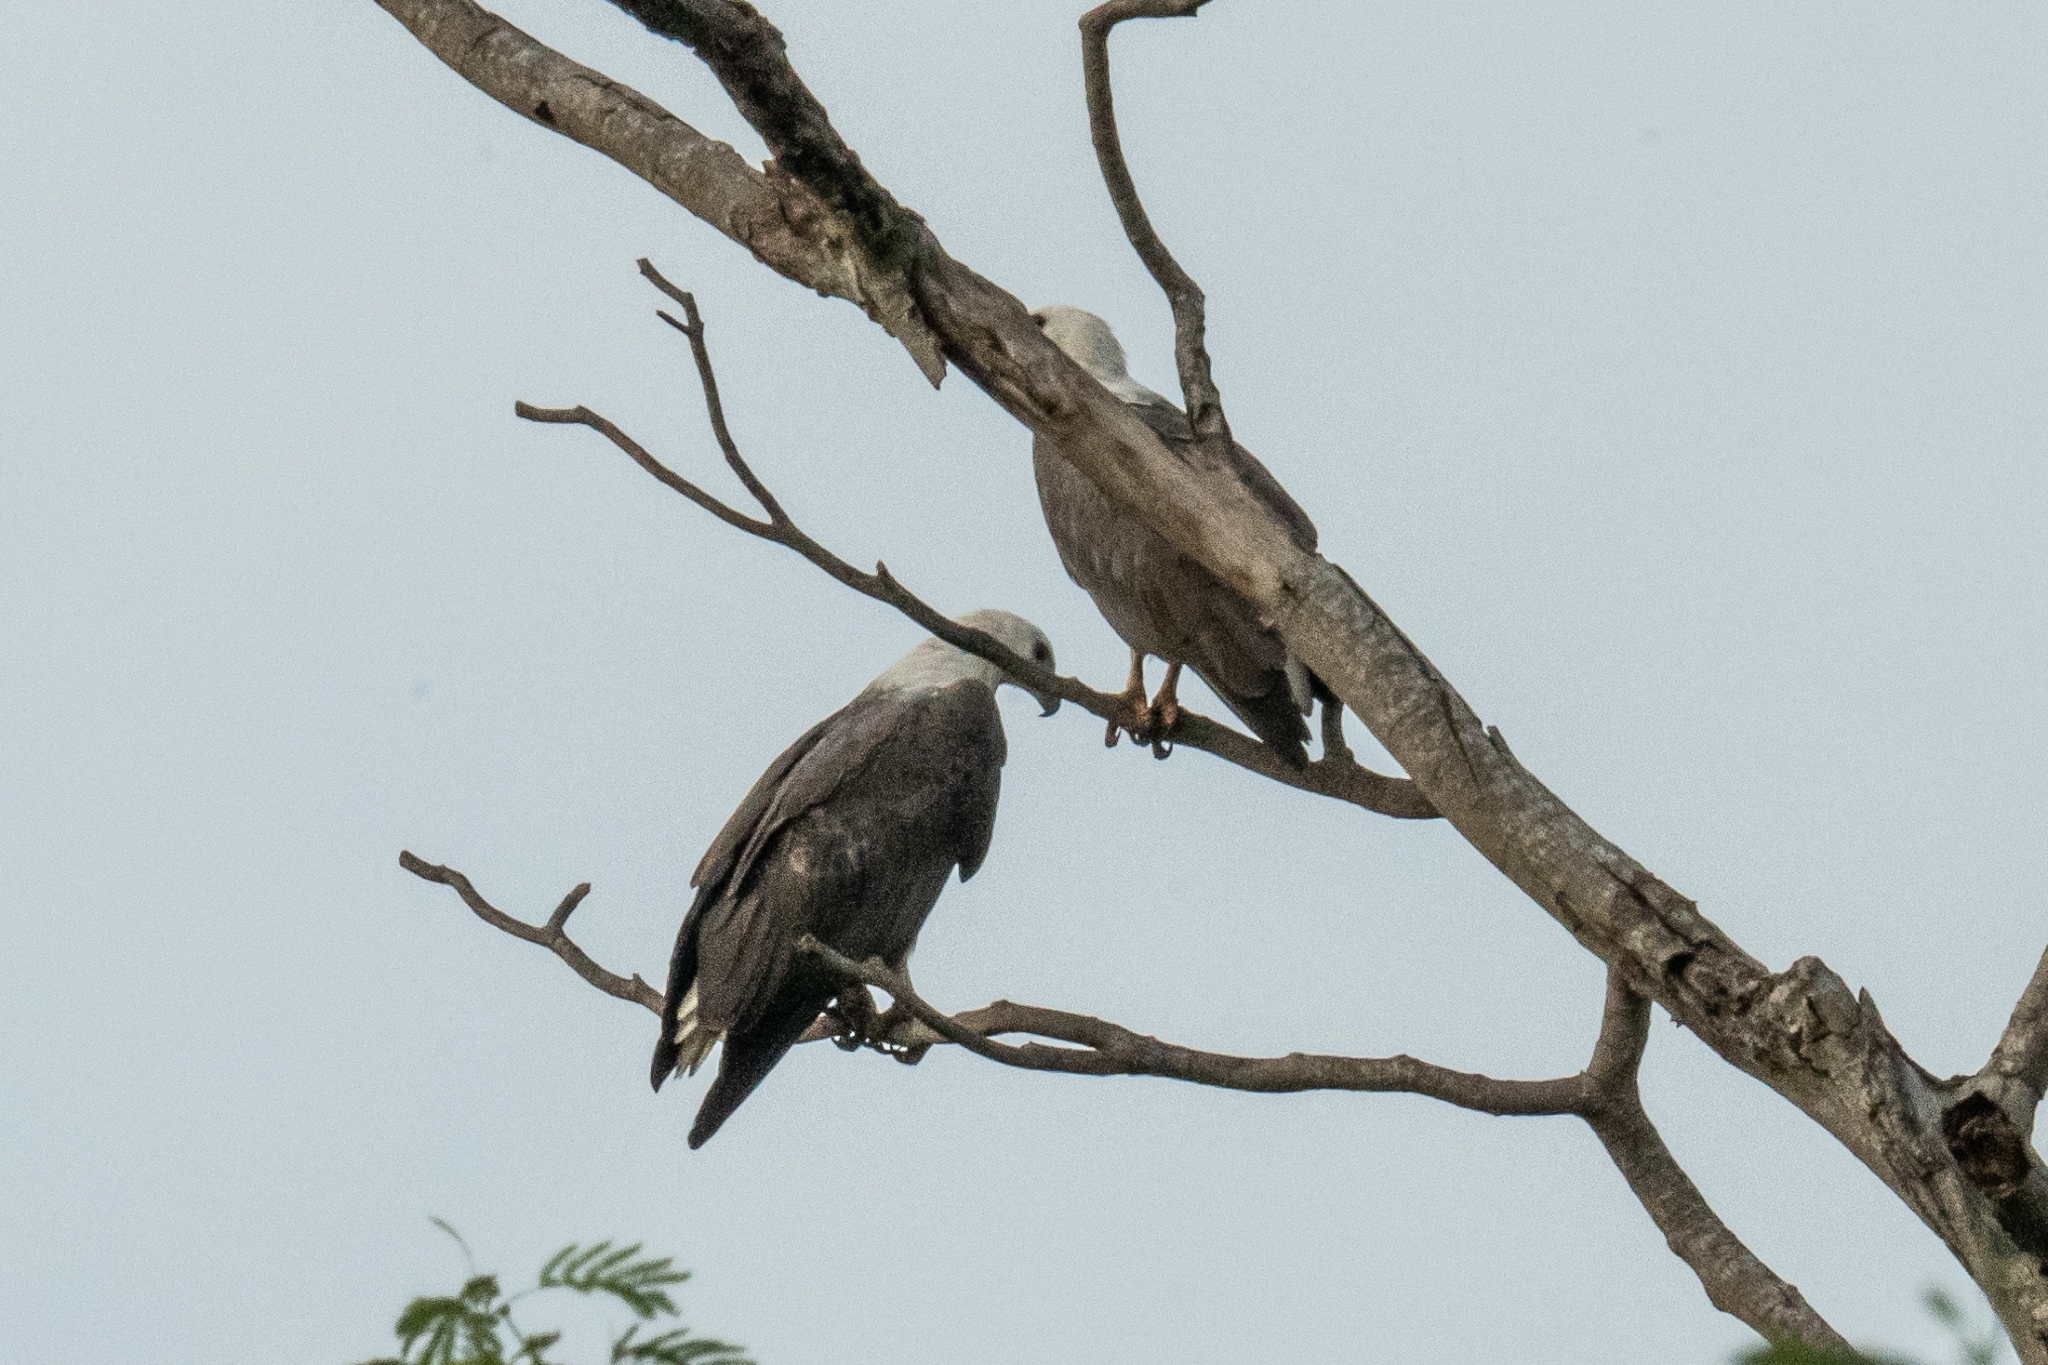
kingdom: Animalia
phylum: Chordata
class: Aves
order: Accipitriformes
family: Accipitridae
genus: Haliaeetus
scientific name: Haliaeetus leucogaster
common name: White-bellied sea eagle
